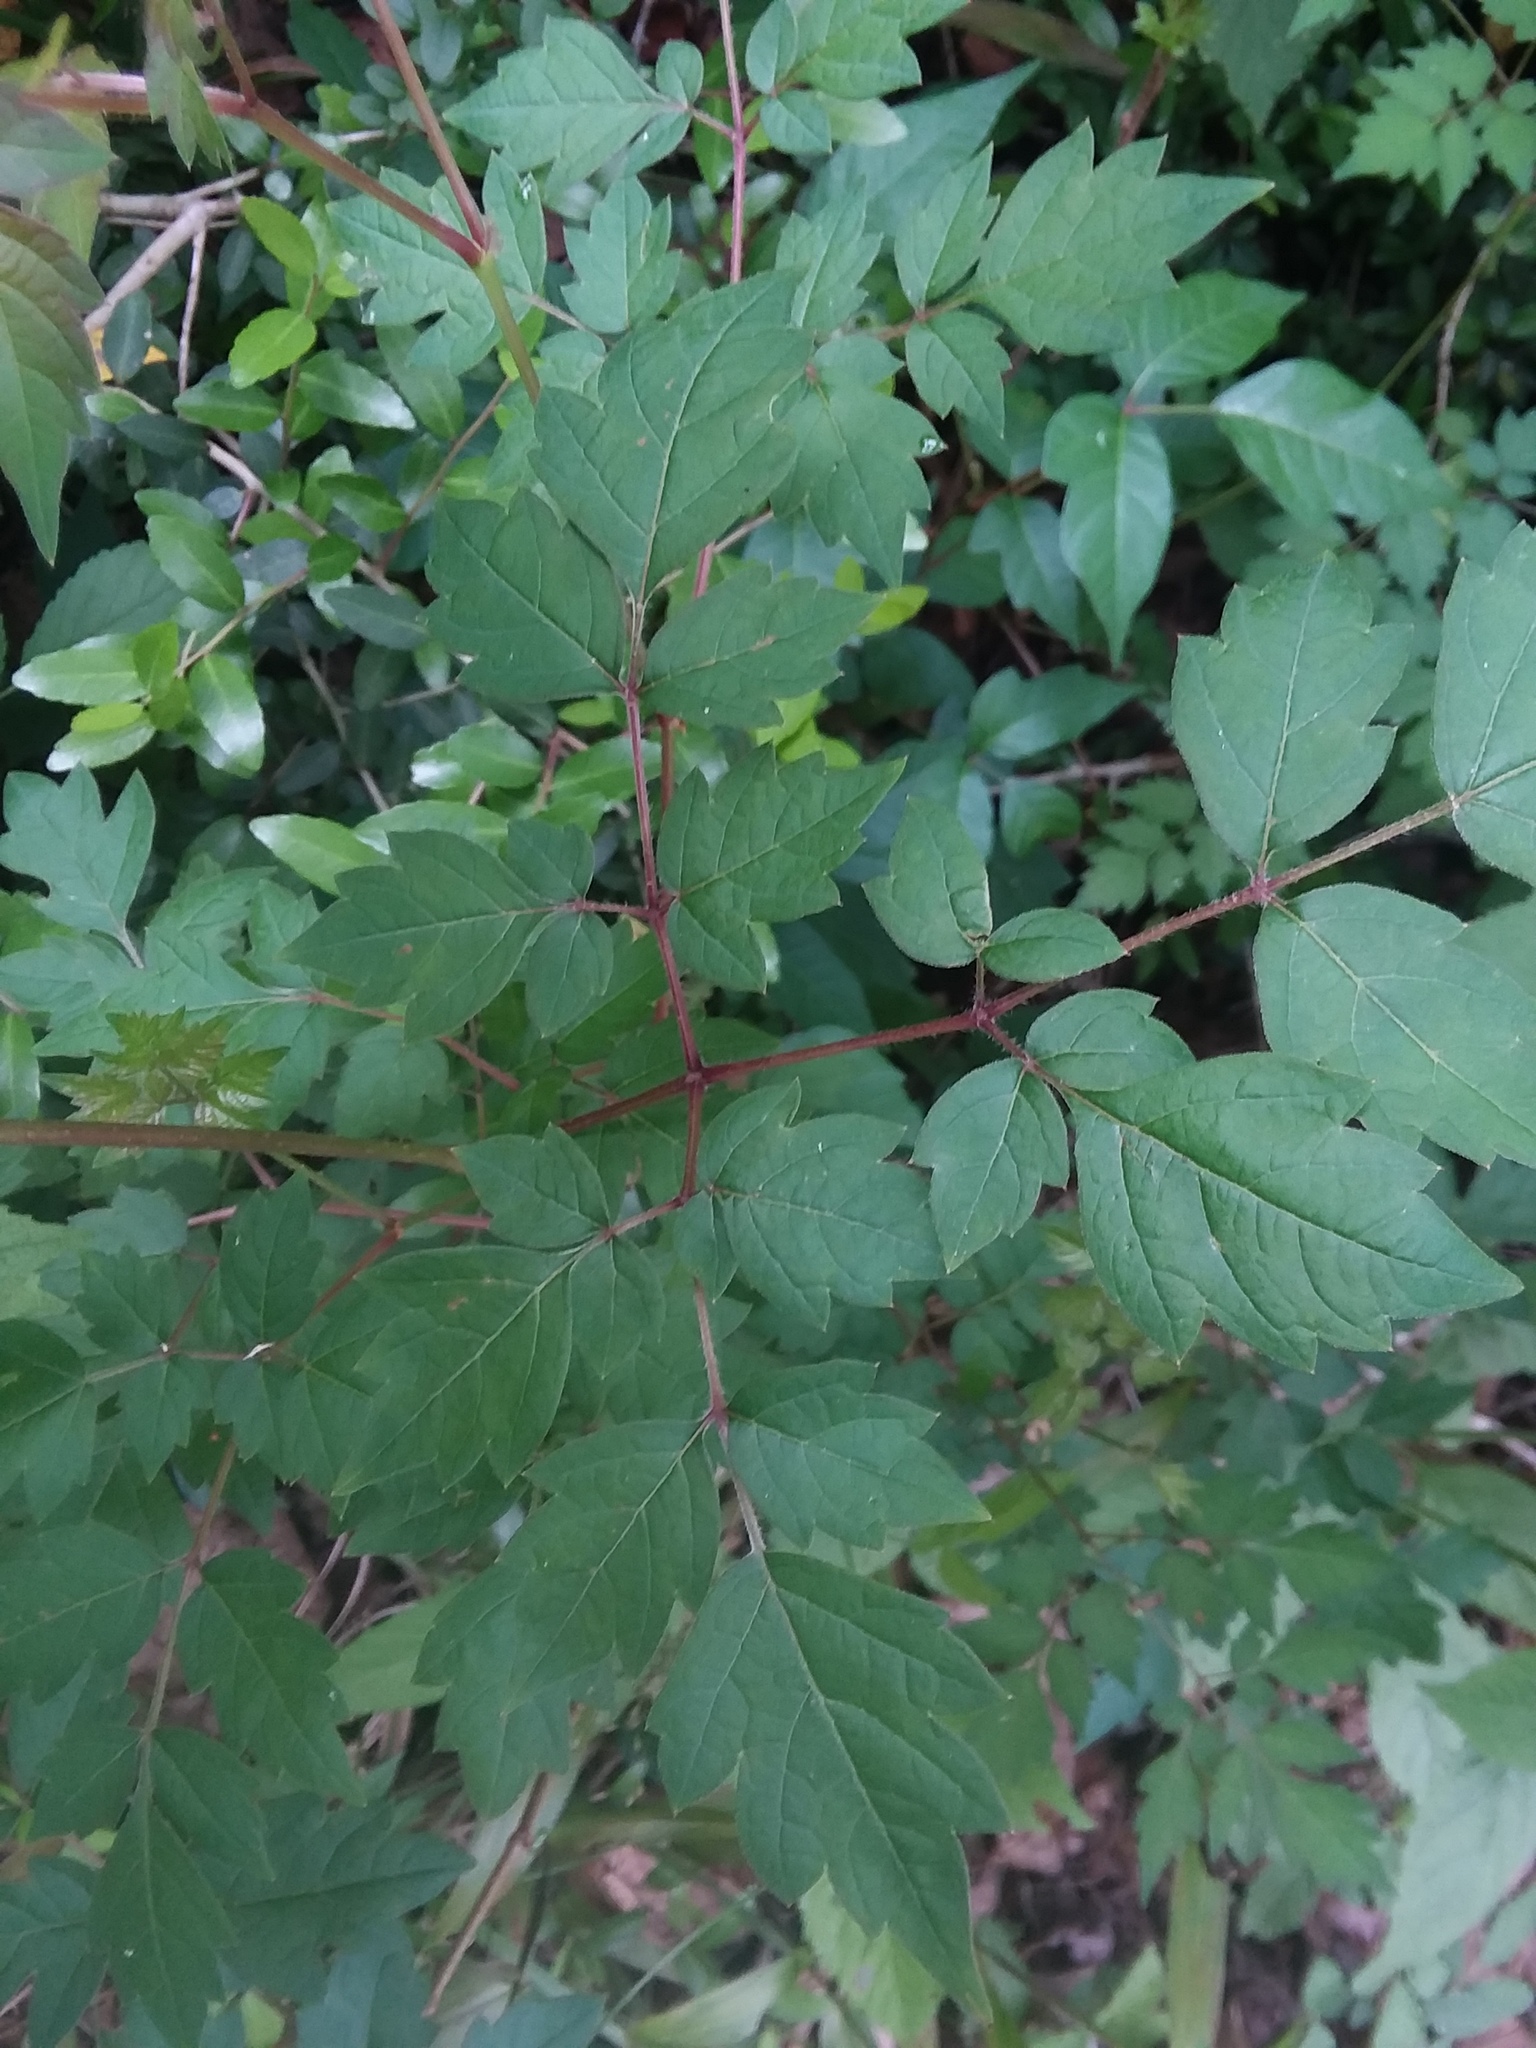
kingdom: Plantae
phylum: Tracheophyta
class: Magnoliopsida
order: Vitales
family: Vitaceae
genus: Nekemias
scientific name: Nekemias arborea
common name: Peppervine
